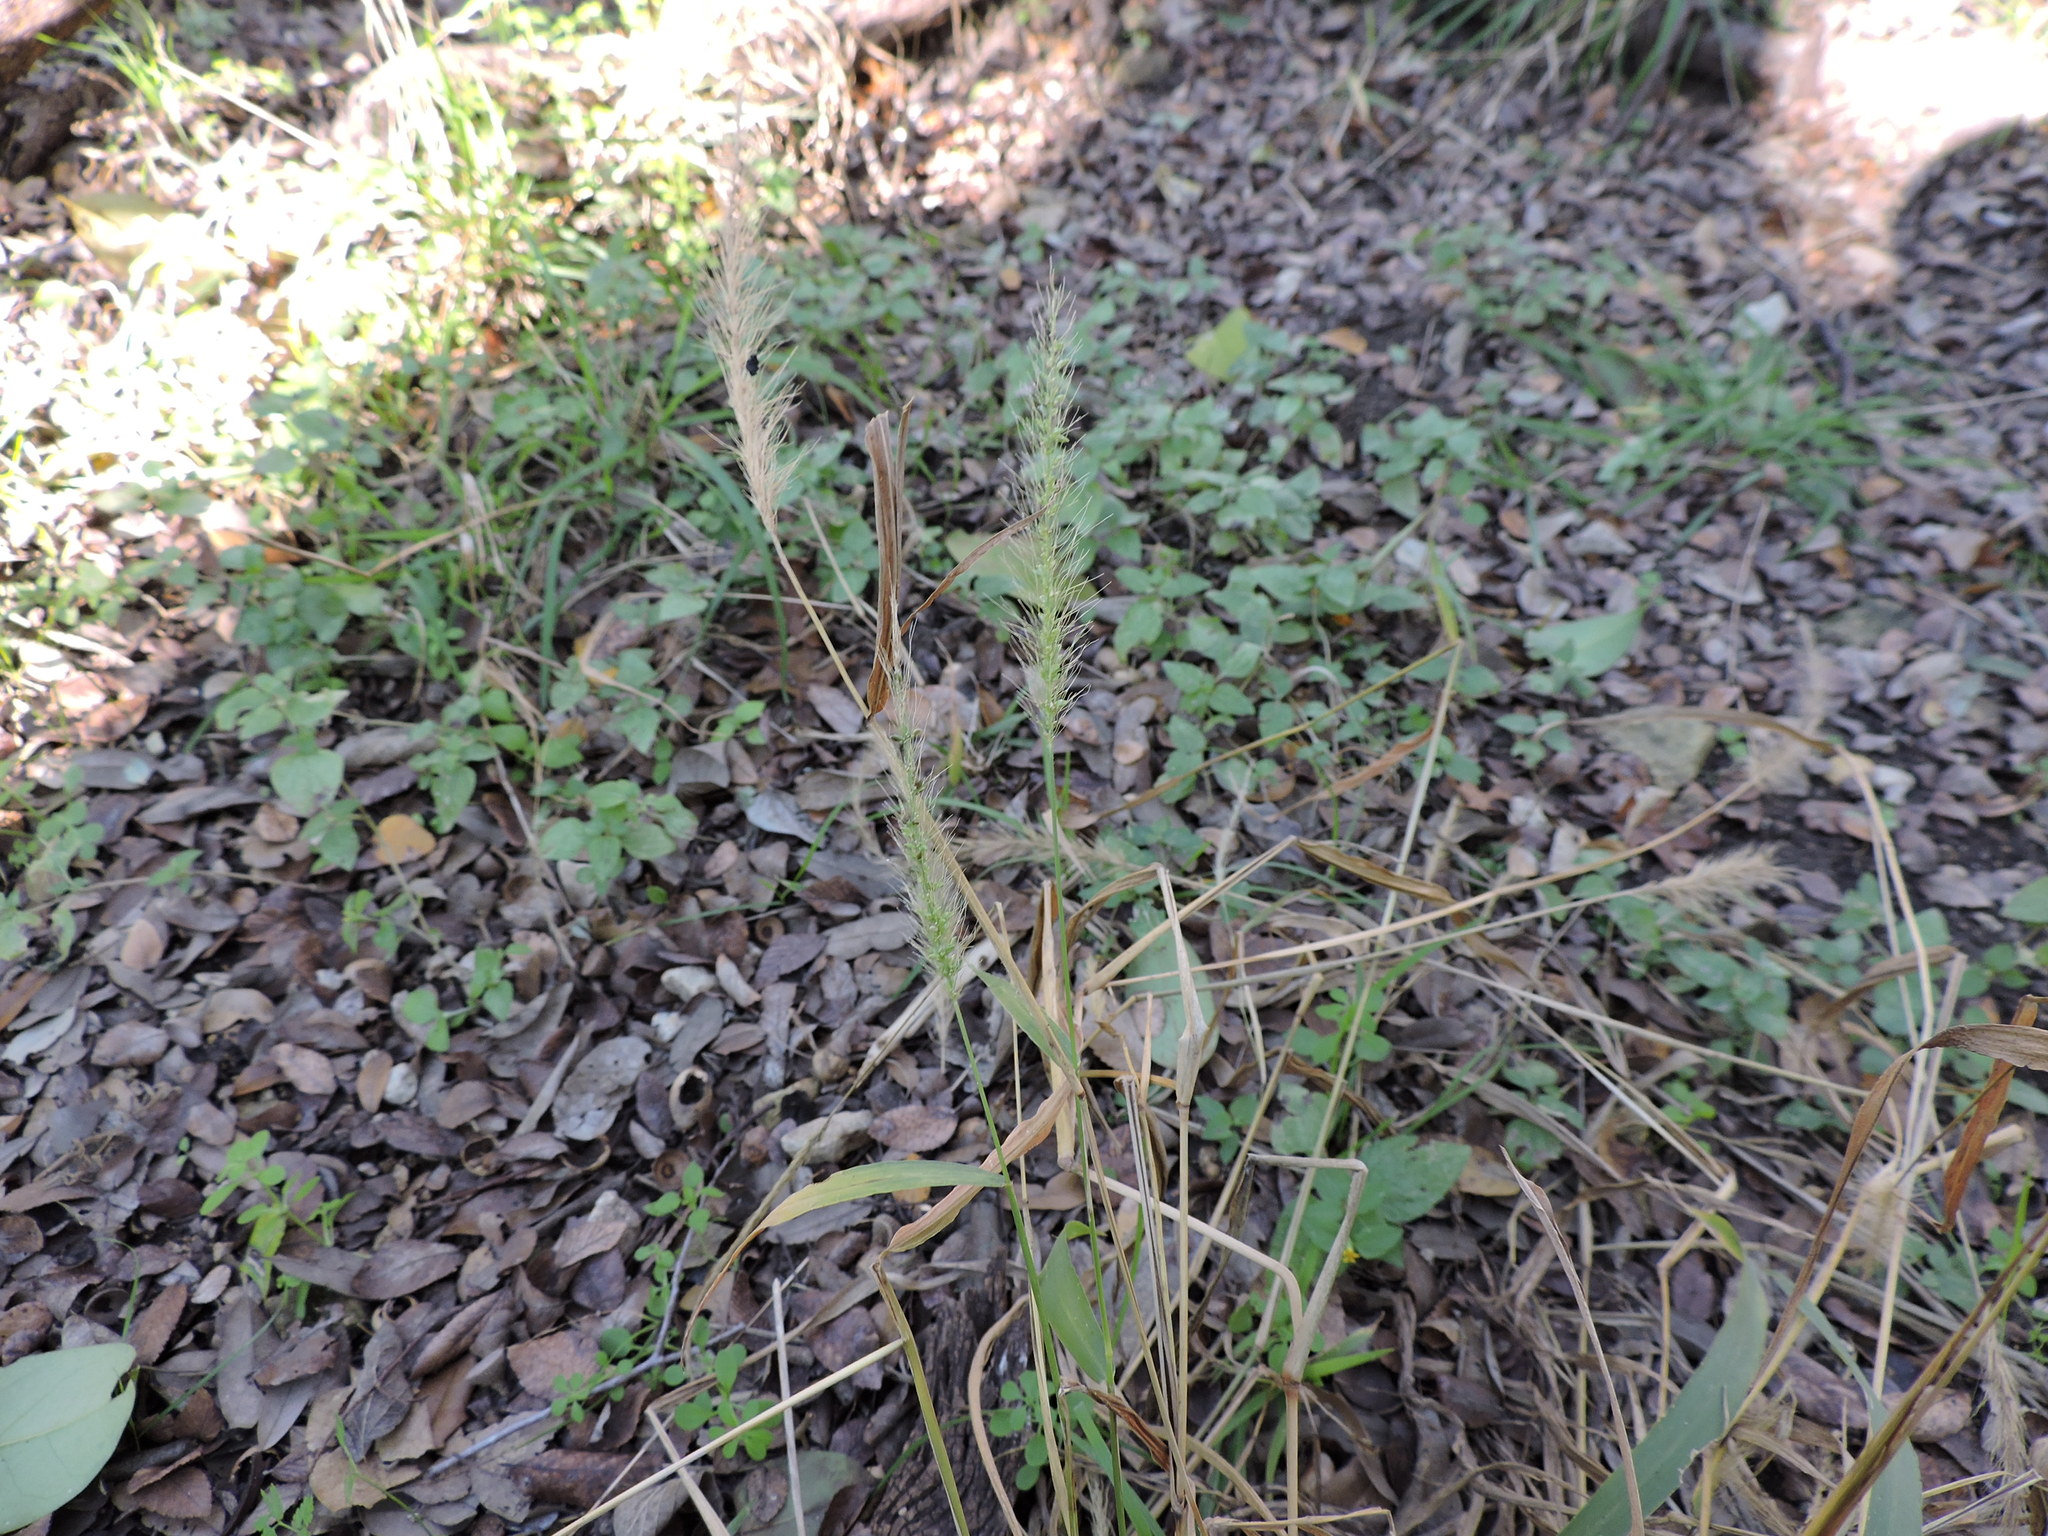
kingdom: Plantae
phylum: Tracheophyta
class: Liliopsida
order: Poales
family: Poaceae
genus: Setaria
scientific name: Setaria scheelei
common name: Southwestern bristle grass
